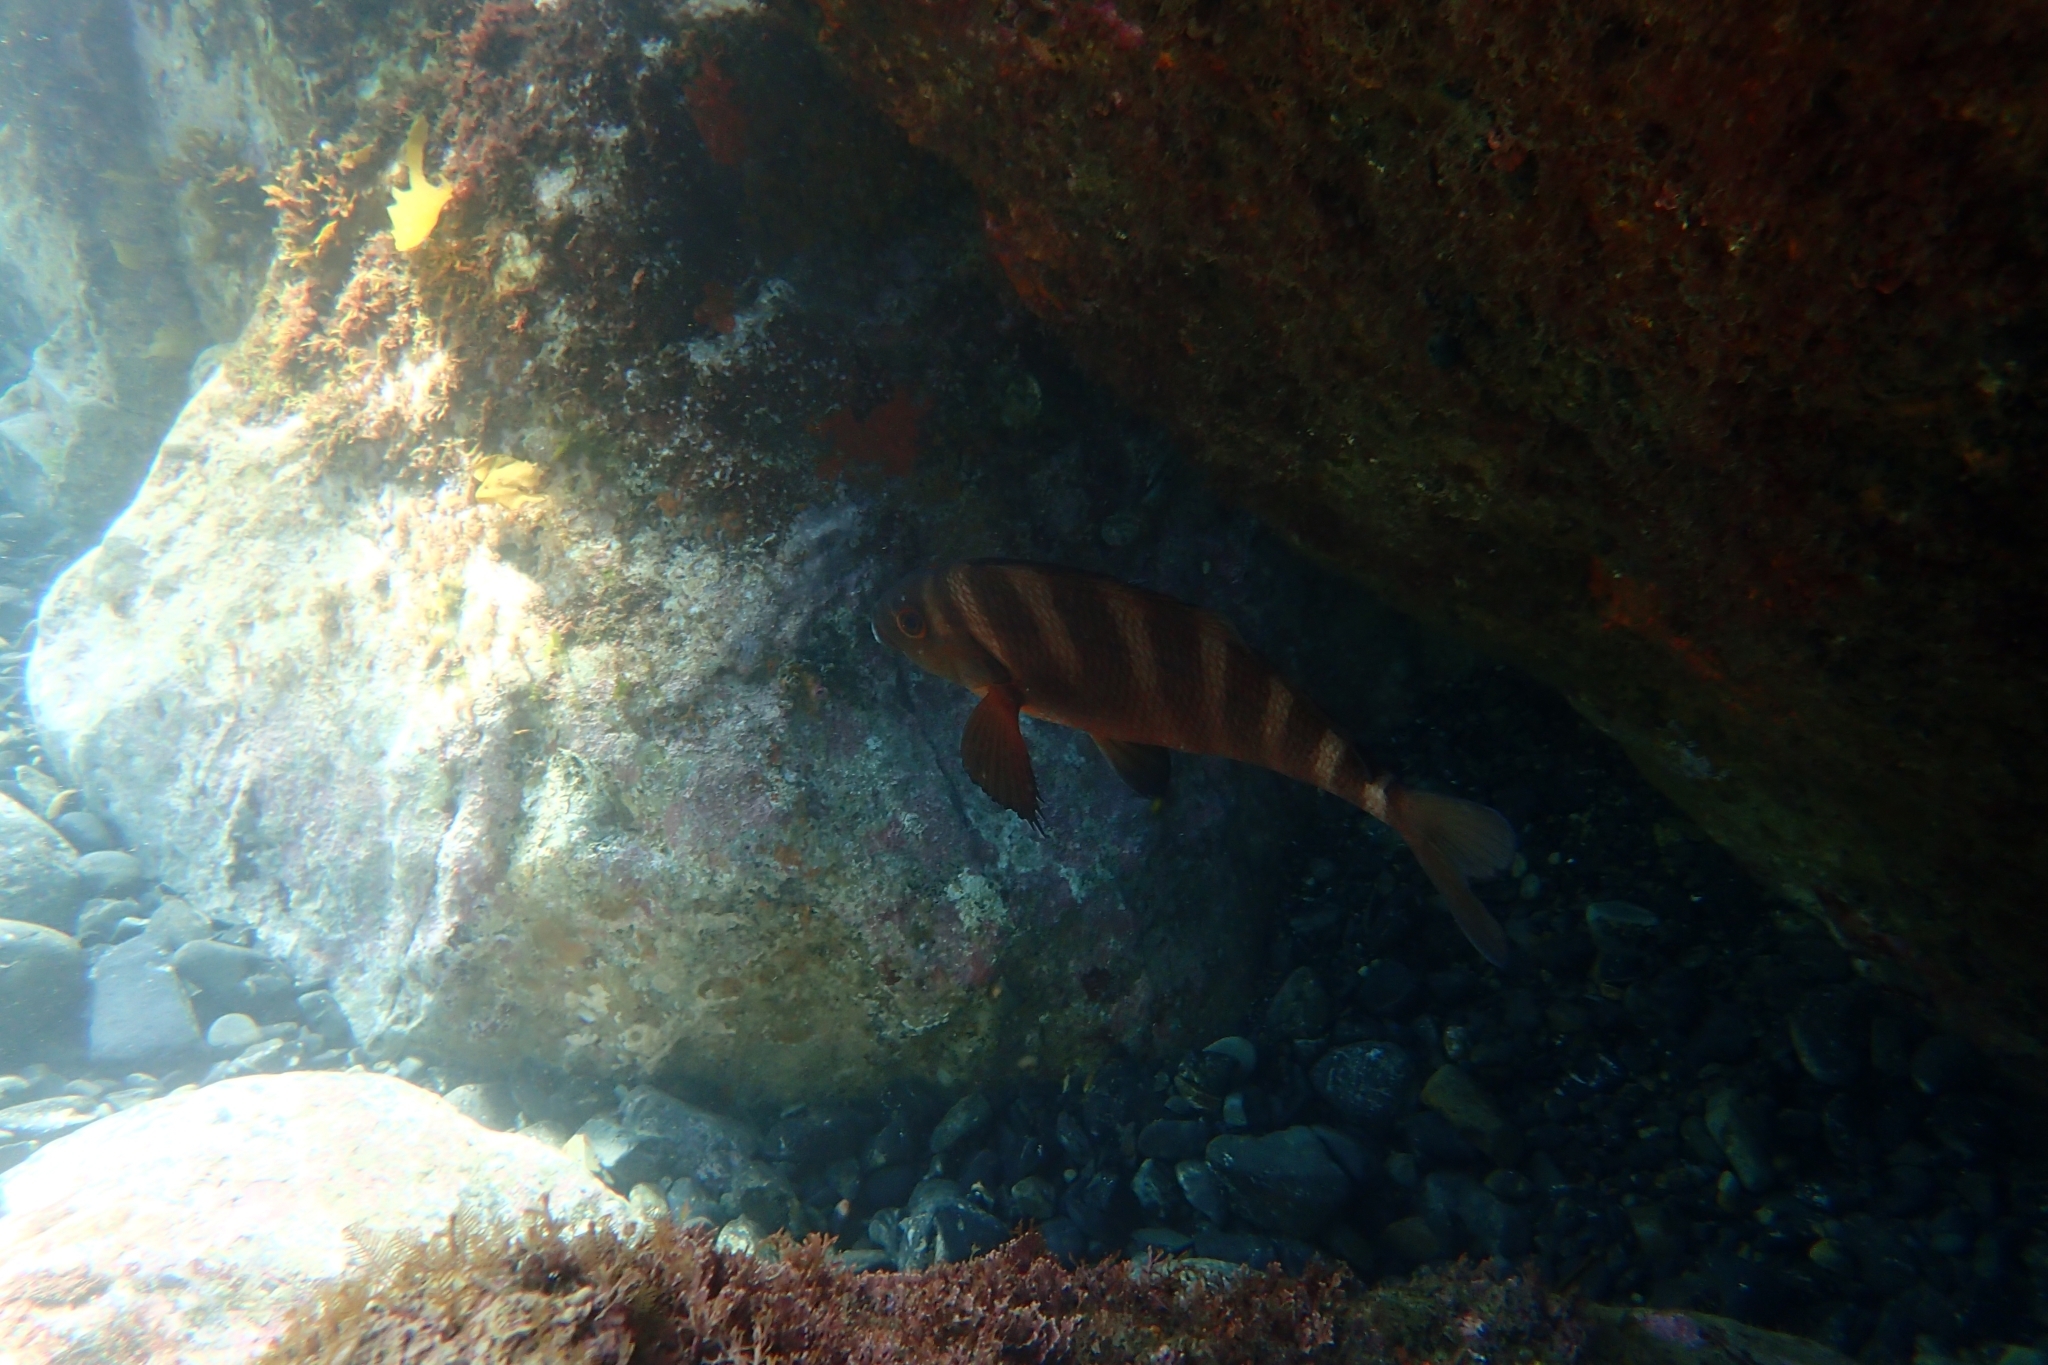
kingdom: Animalia
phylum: Chordata
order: Perciformes
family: Cheilodactylidae
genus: Cheilodactylus
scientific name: Cheilodactylus spectabilis
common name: Red moki
